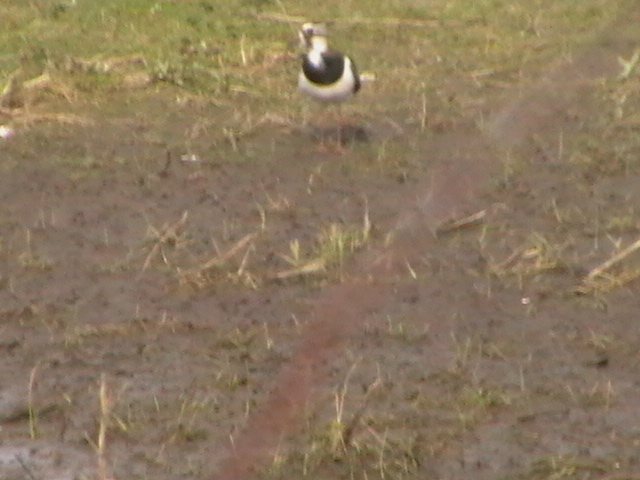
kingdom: Animalia
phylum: Chordata
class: Aves
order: Charadriiformes
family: Charadriidae
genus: Vanellus
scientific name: Vanellus vanellus
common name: Northern lapwing
